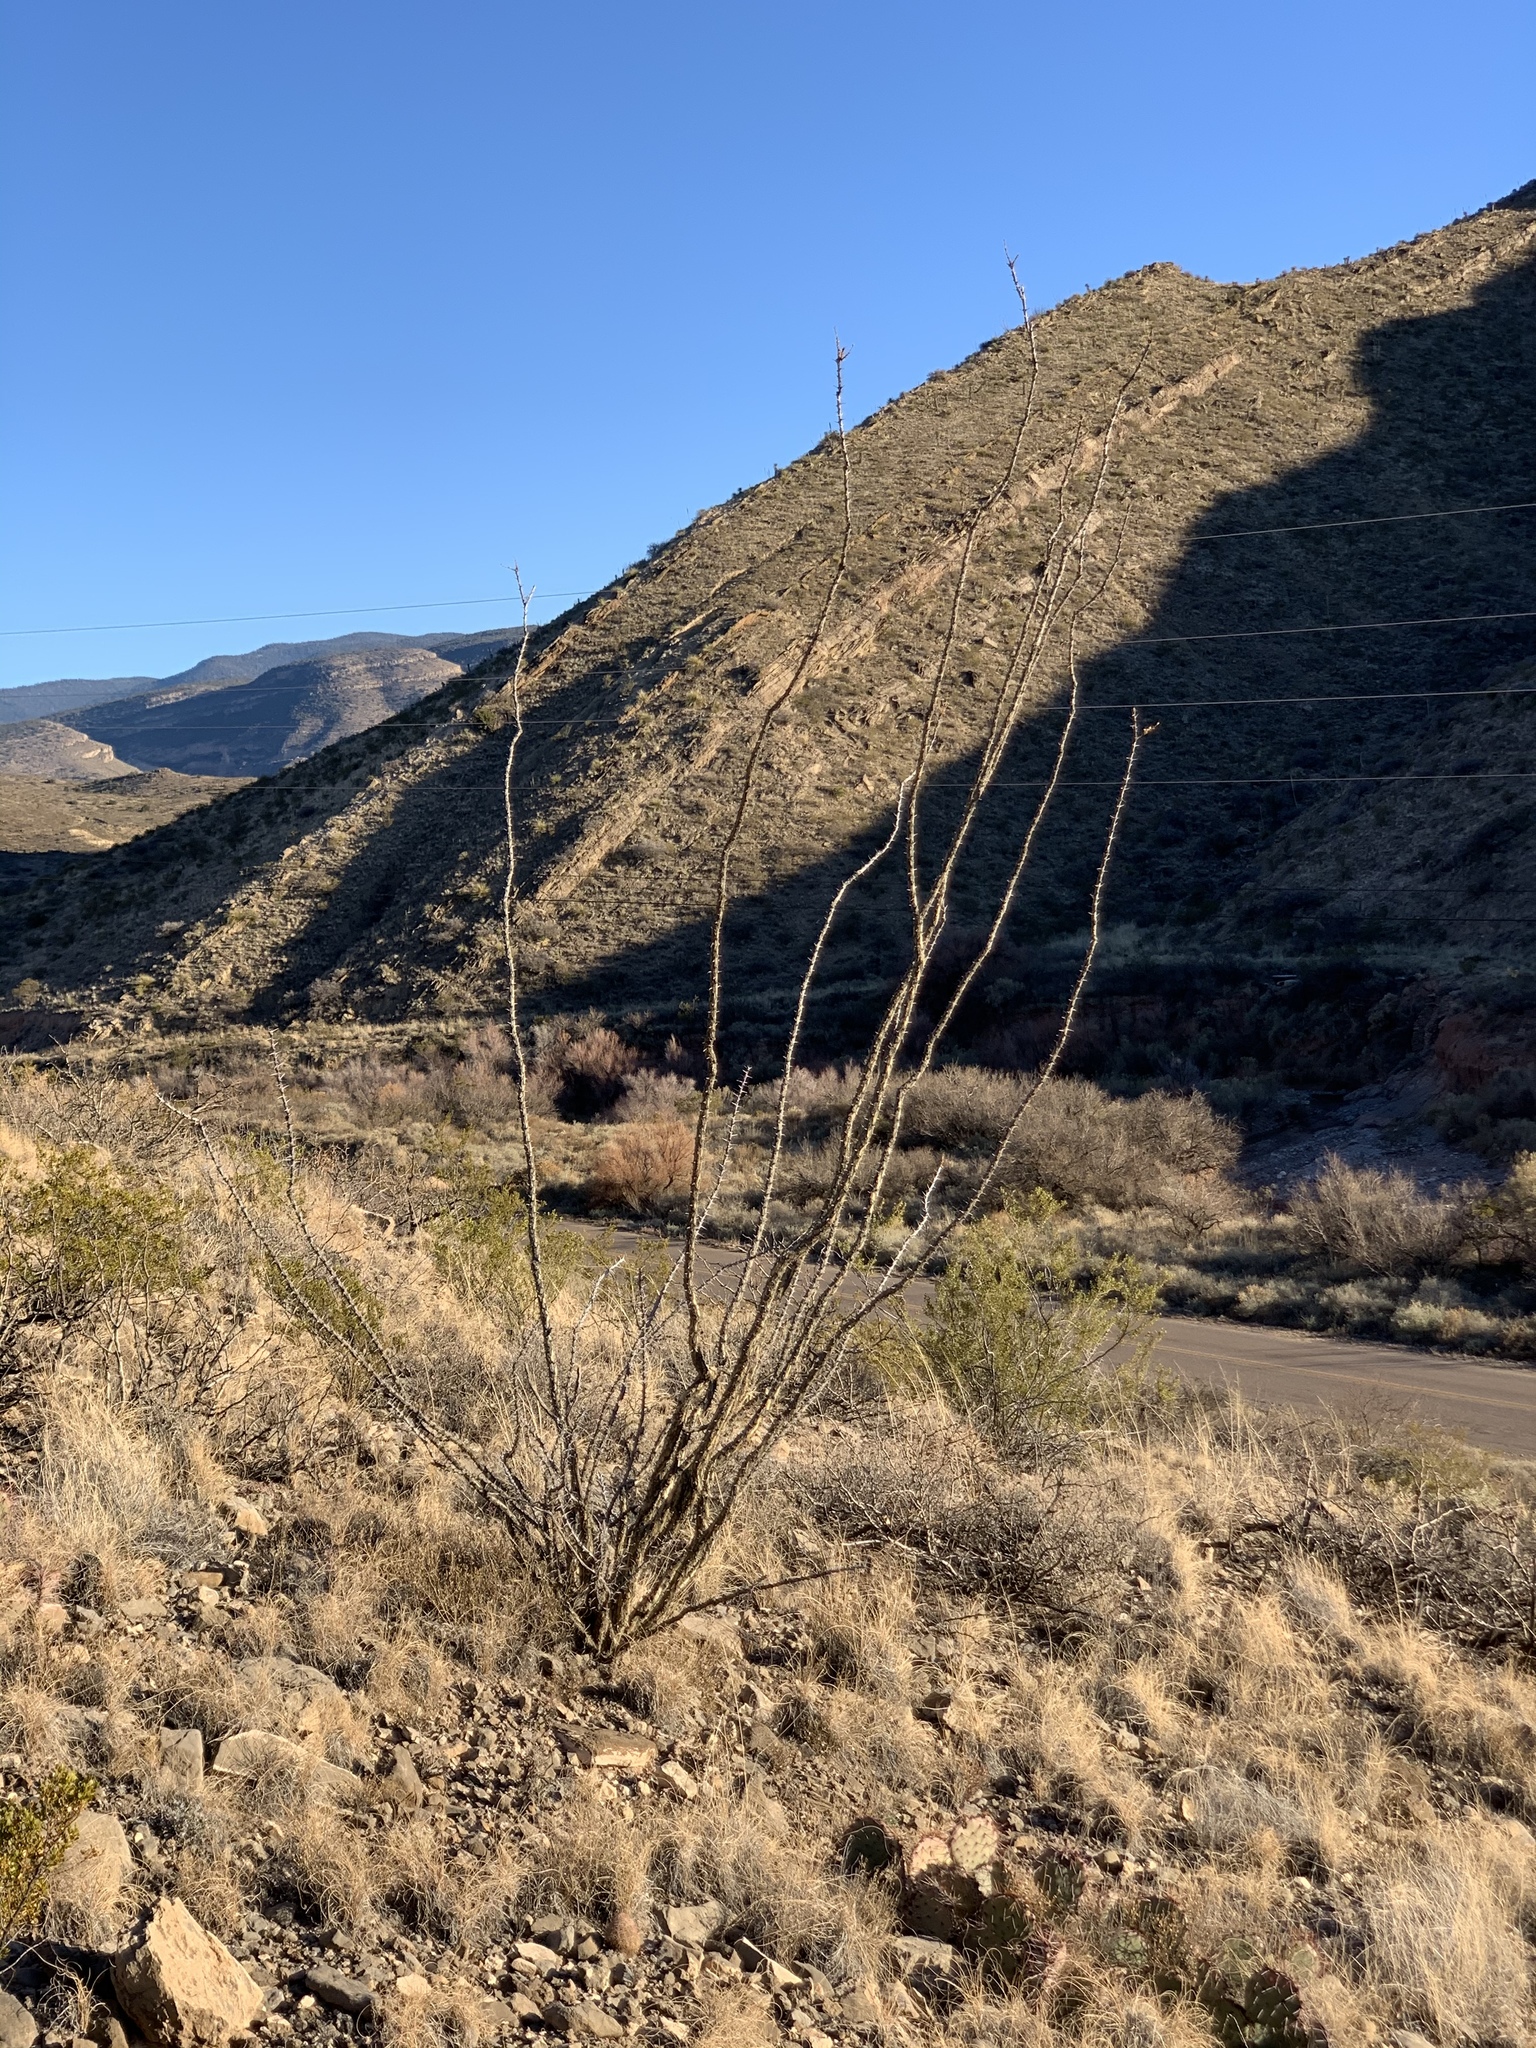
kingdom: Plantae
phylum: Tracheophyta
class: Magnoliopsida
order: Ericales
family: Fouquieriaceae
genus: Fouquieria
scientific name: Fouquieria splendens
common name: Vine-cactus
